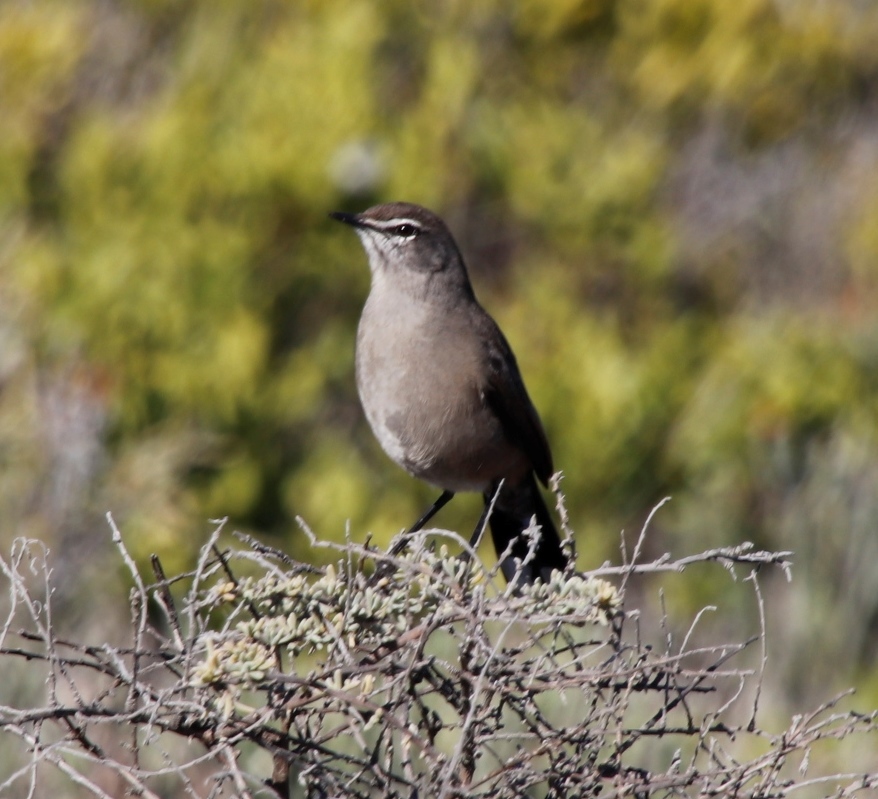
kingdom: Animalia
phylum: Chordata
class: Aves
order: Passeriformes
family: Muscicapidae
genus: Erythropygia
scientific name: Erythropygia coryphoeus
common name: Karoo scrub robin
